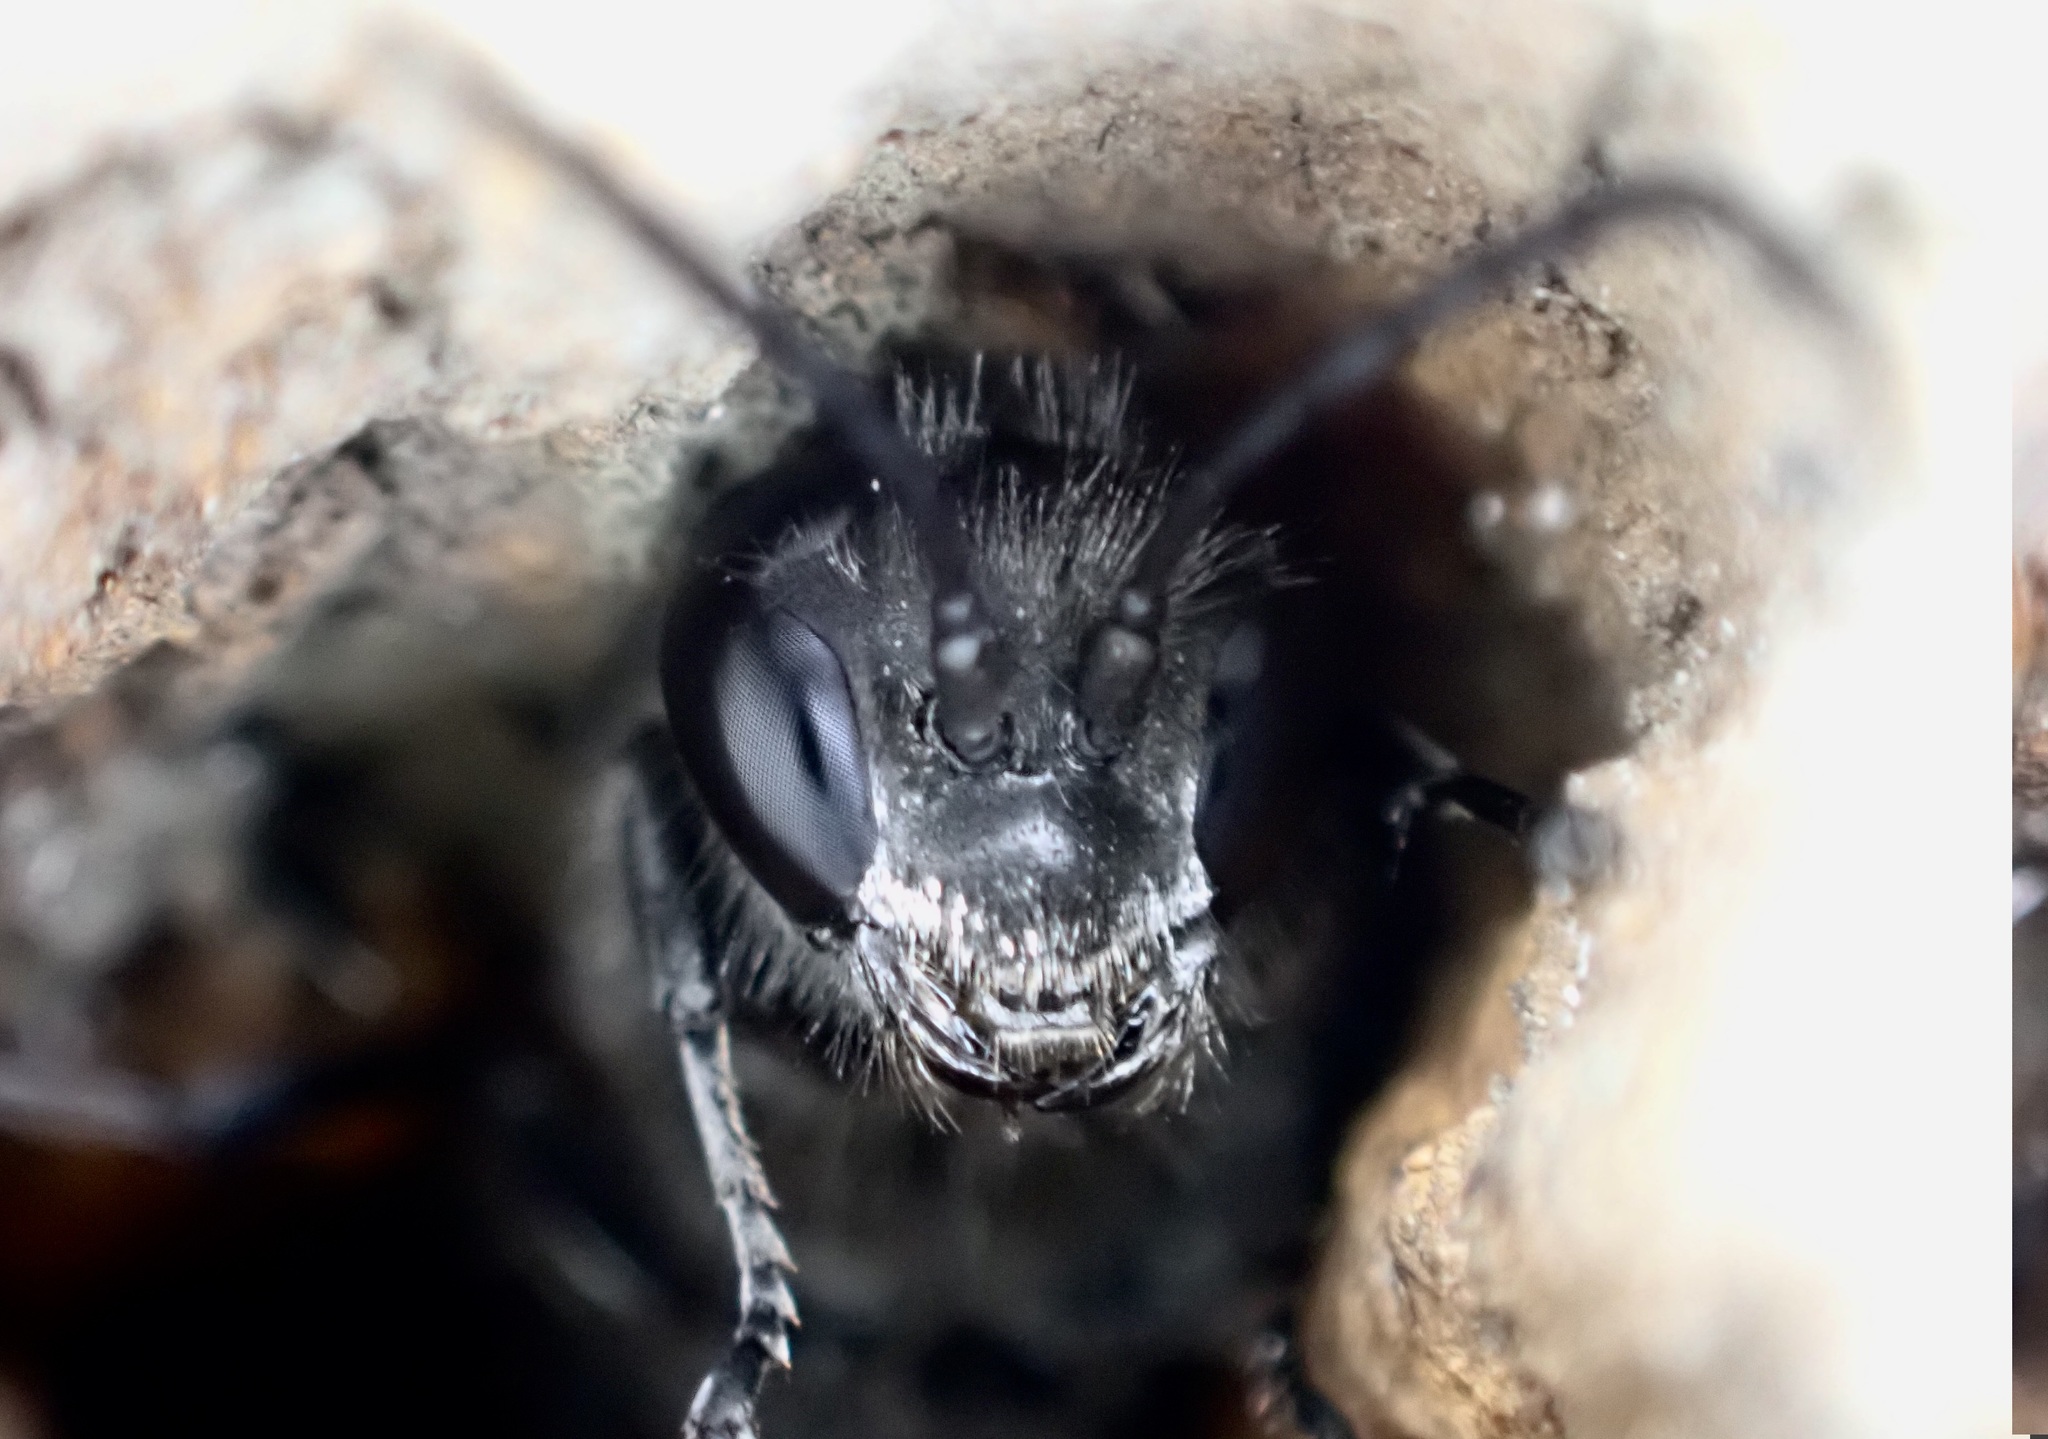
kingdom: Animalia
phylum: Arthropoda
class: Insecta
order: Hymenoptera
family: Crabronidae
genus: Pison
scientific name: Pison spinolae
